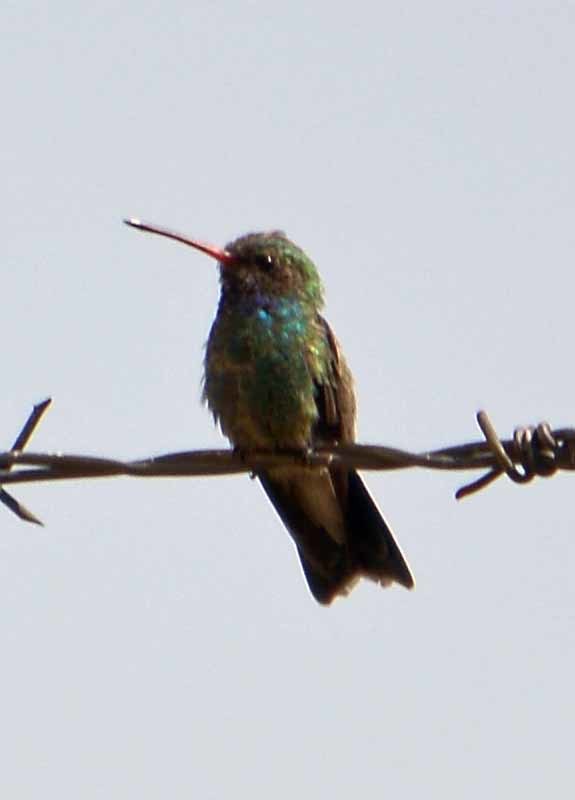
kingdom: Animalia
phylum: Chordata
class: Aves
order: Apodiformes
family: Trochilidae
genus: Cynanthus
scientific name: Cynanthus latirostris
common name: Broad-billed hummingbird
